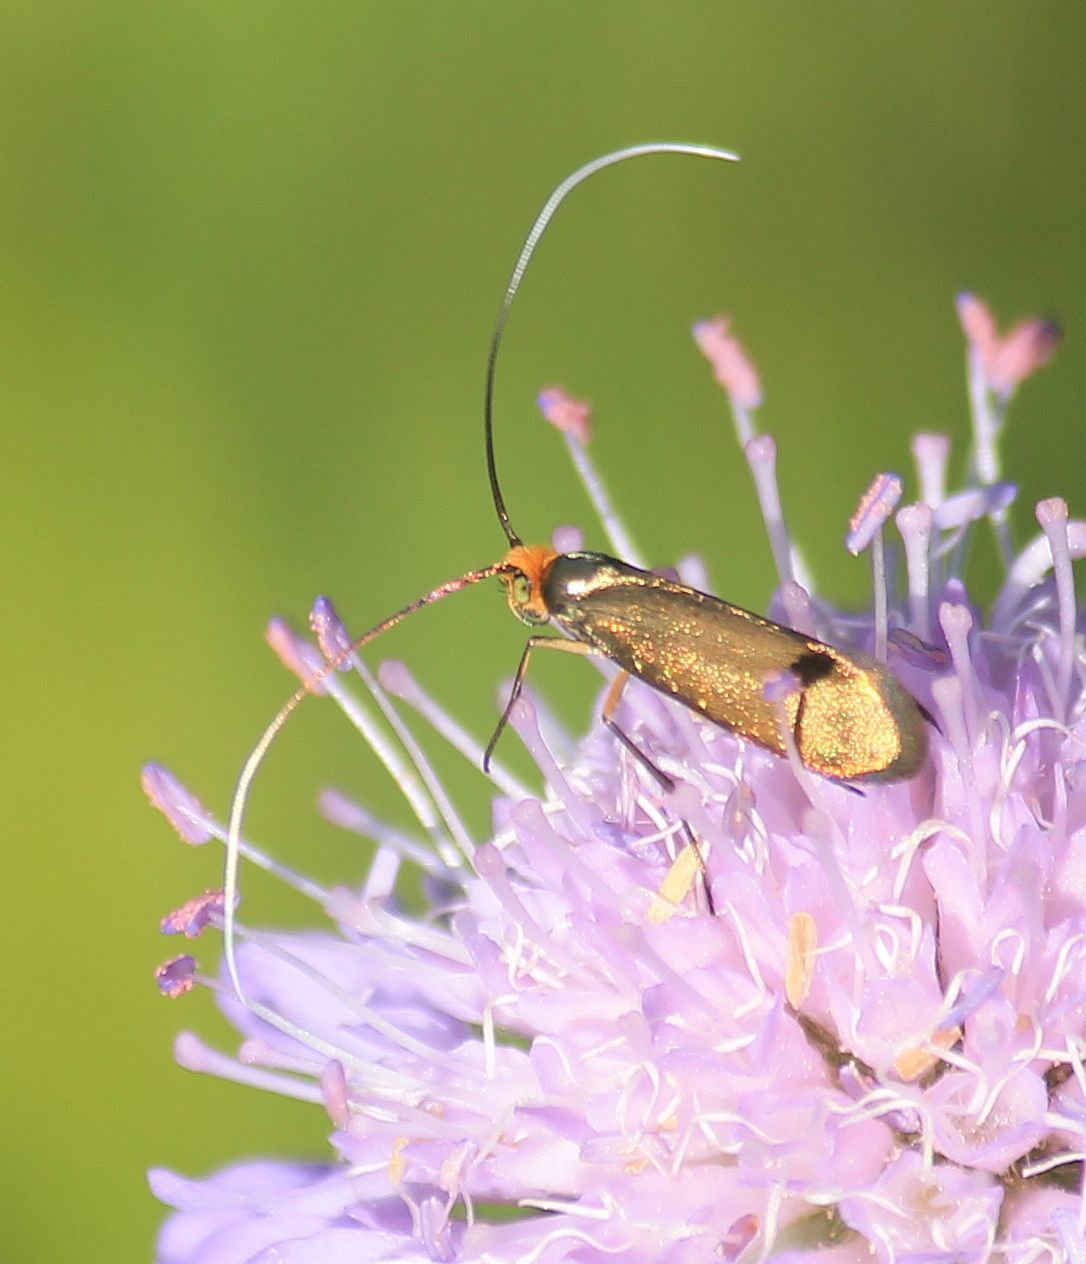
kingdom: Animalia
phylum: Arthropoda
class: Insecta
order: Lepidoptera
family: Adelidae
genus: Nemophora
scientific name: Nemophora metallica
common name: Brassy long-horn
